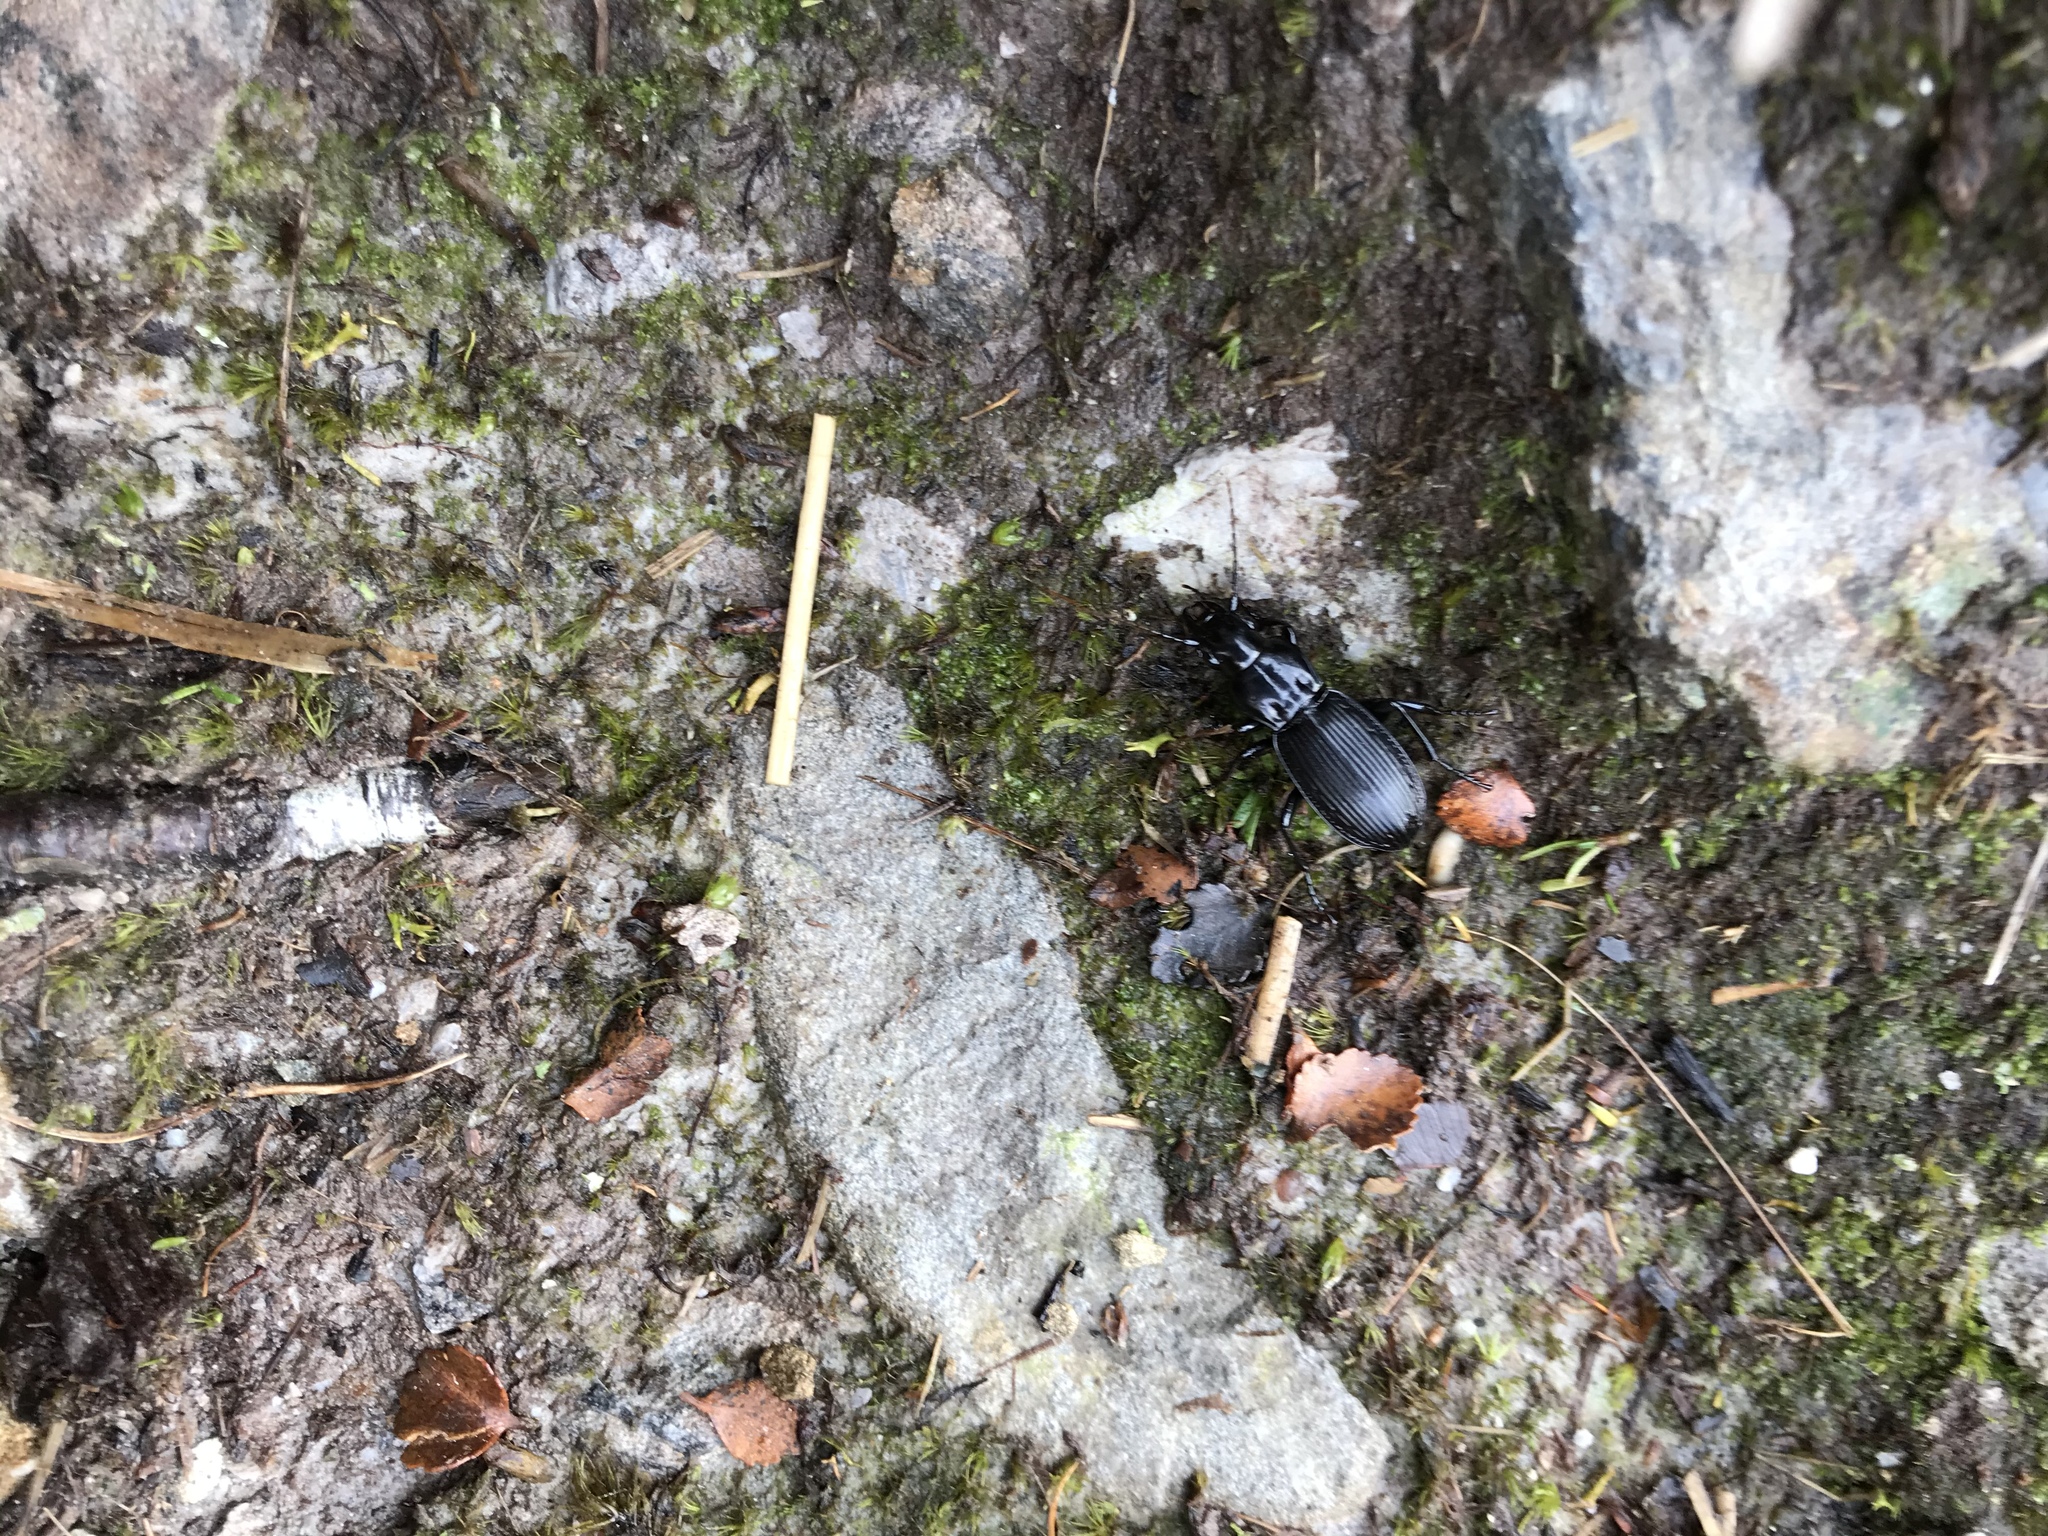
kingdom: Animalia
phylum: Arthropoda
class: Insecta
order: Coleoptera
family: Carabidae
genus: Plocamostethus
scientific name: Plocamostethus planiusculus
